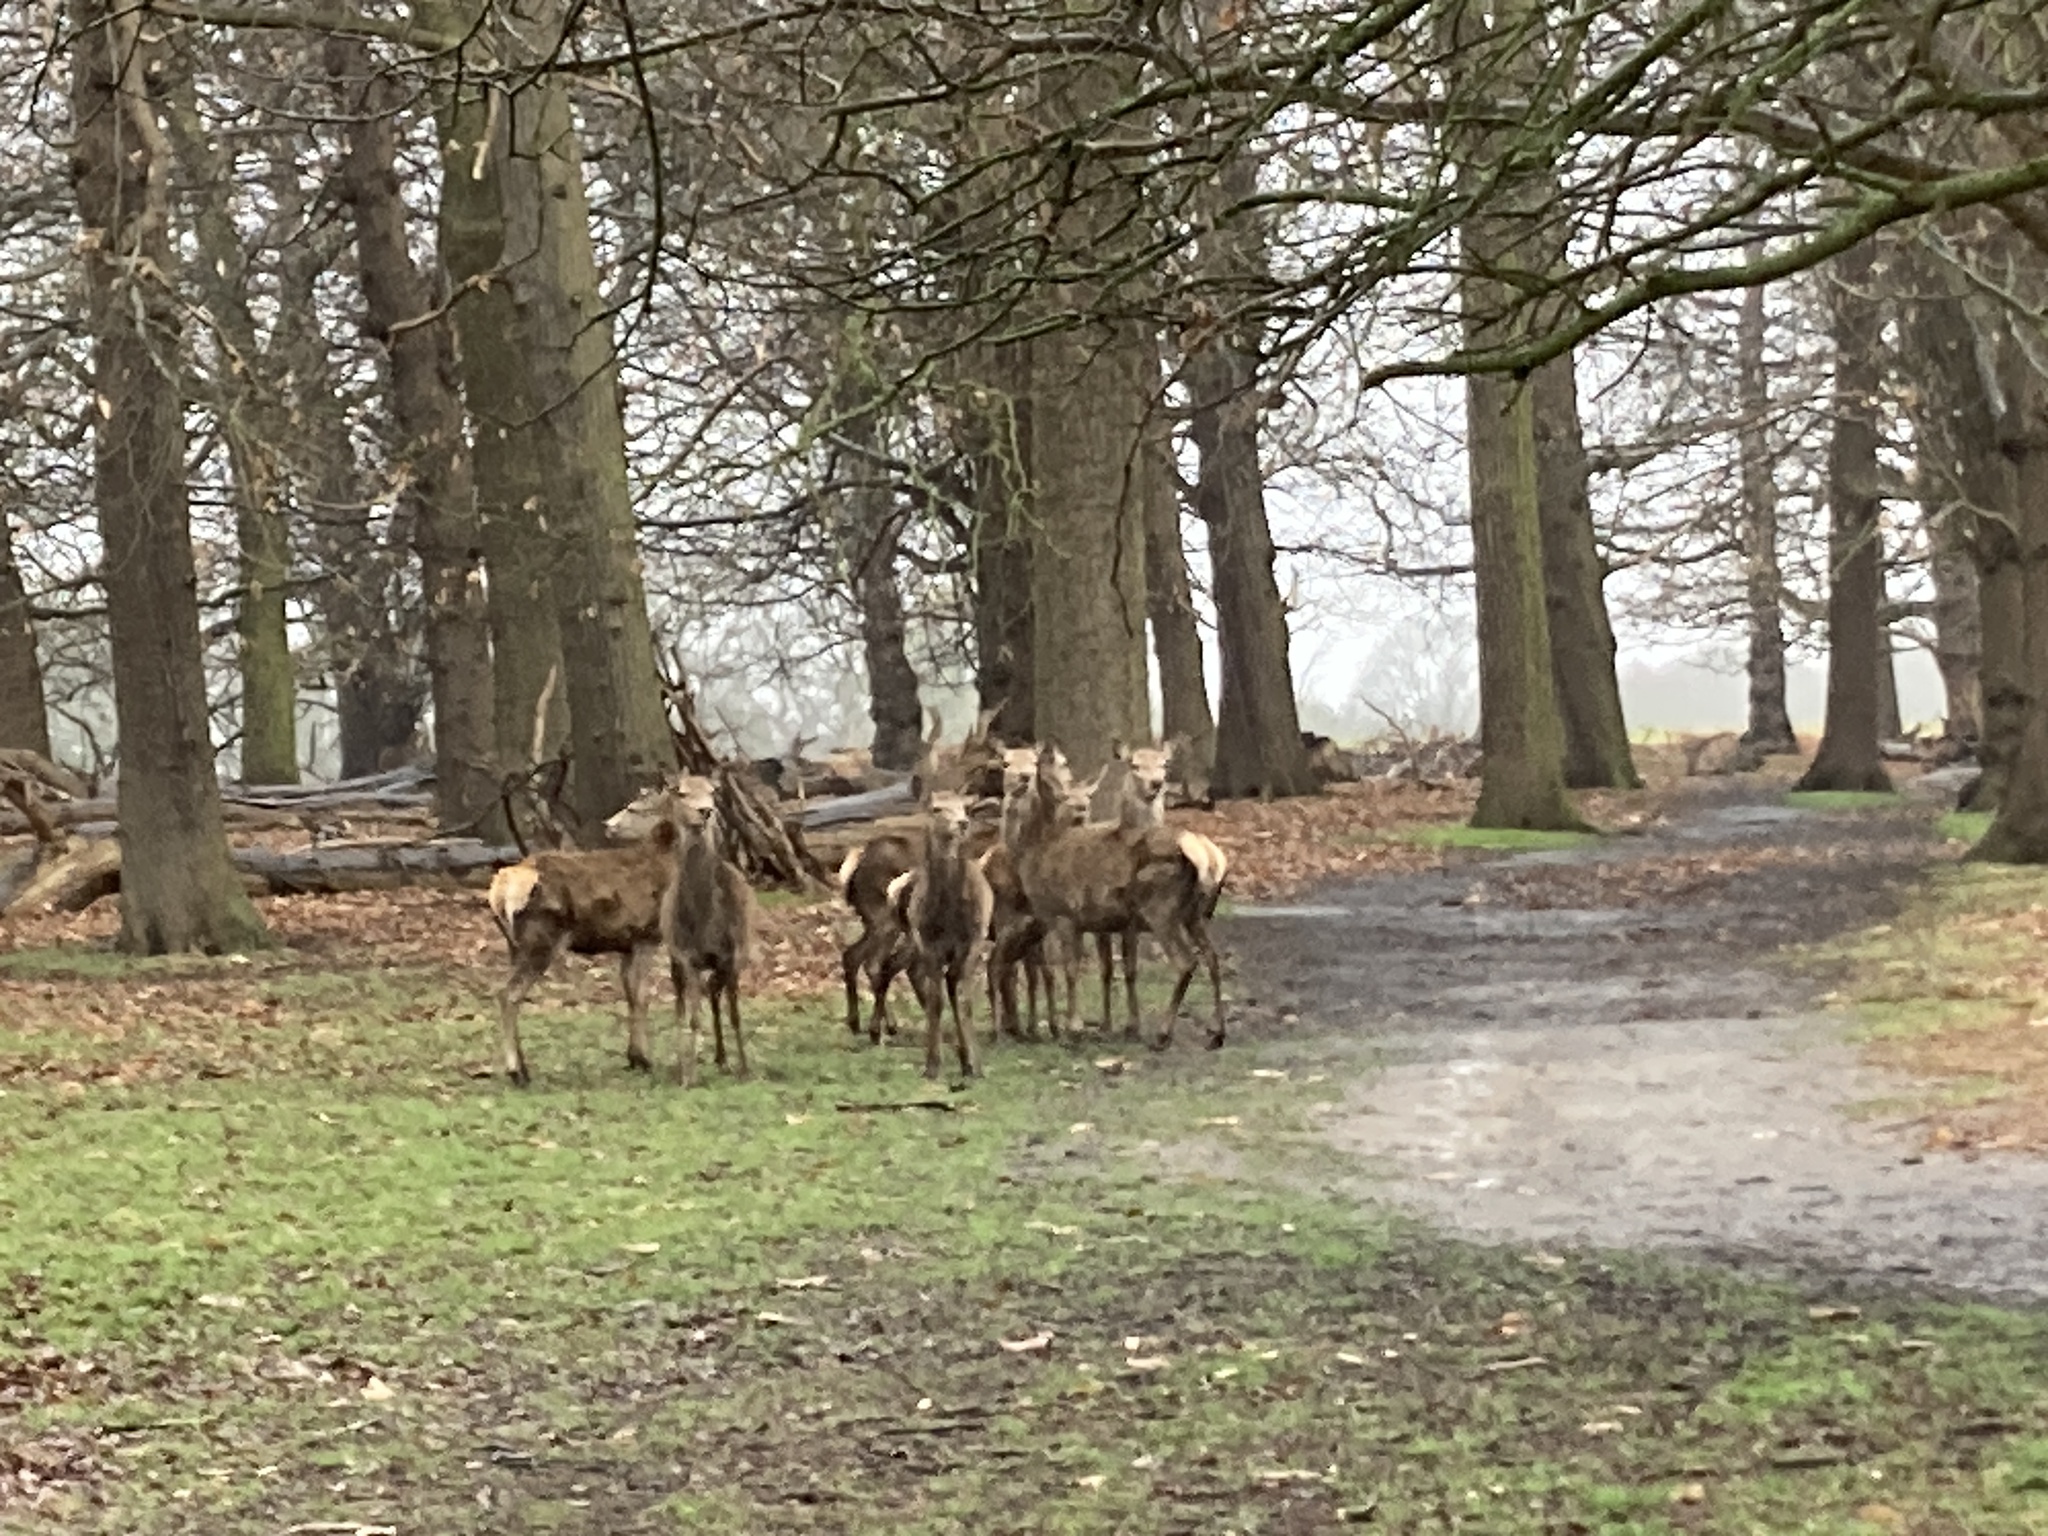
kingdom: Animalia
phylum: Chordata
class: Mammalia
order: Artiodactyla
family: Cervidae
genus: Cervus
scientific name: Cervus elaphus
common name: Red deer
